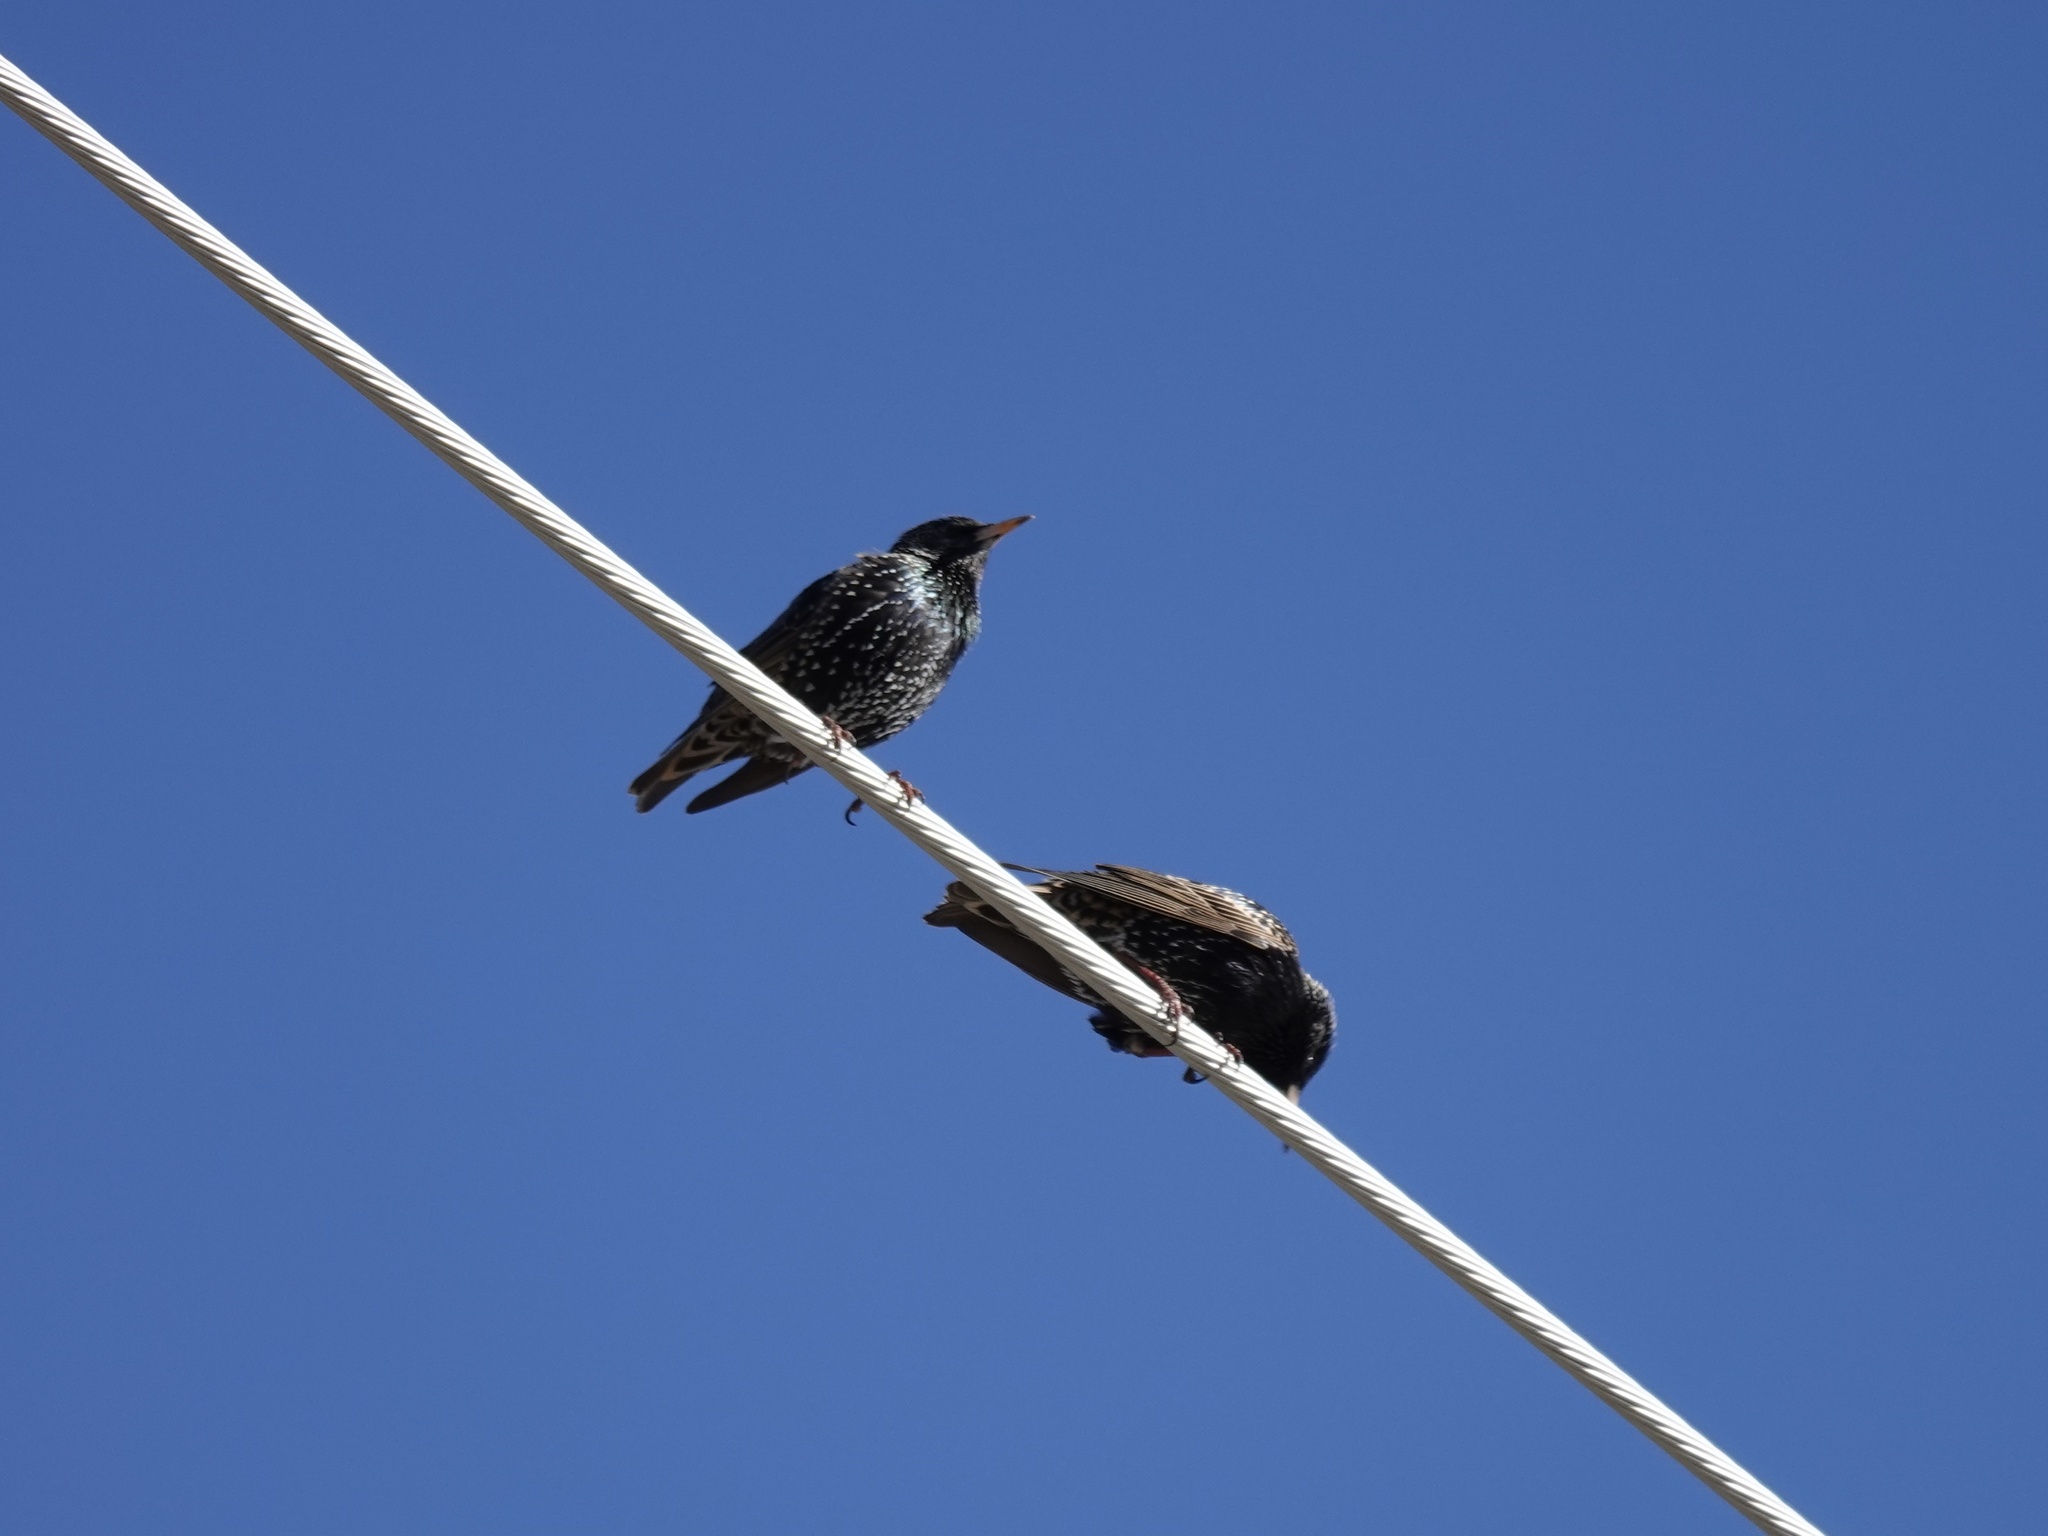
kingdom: Animalia
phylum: Chordata
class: Aves
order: Passeriformes
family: Sturnidae
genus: Sturnus
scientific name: Sturnus vulgaris
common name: Common starling
